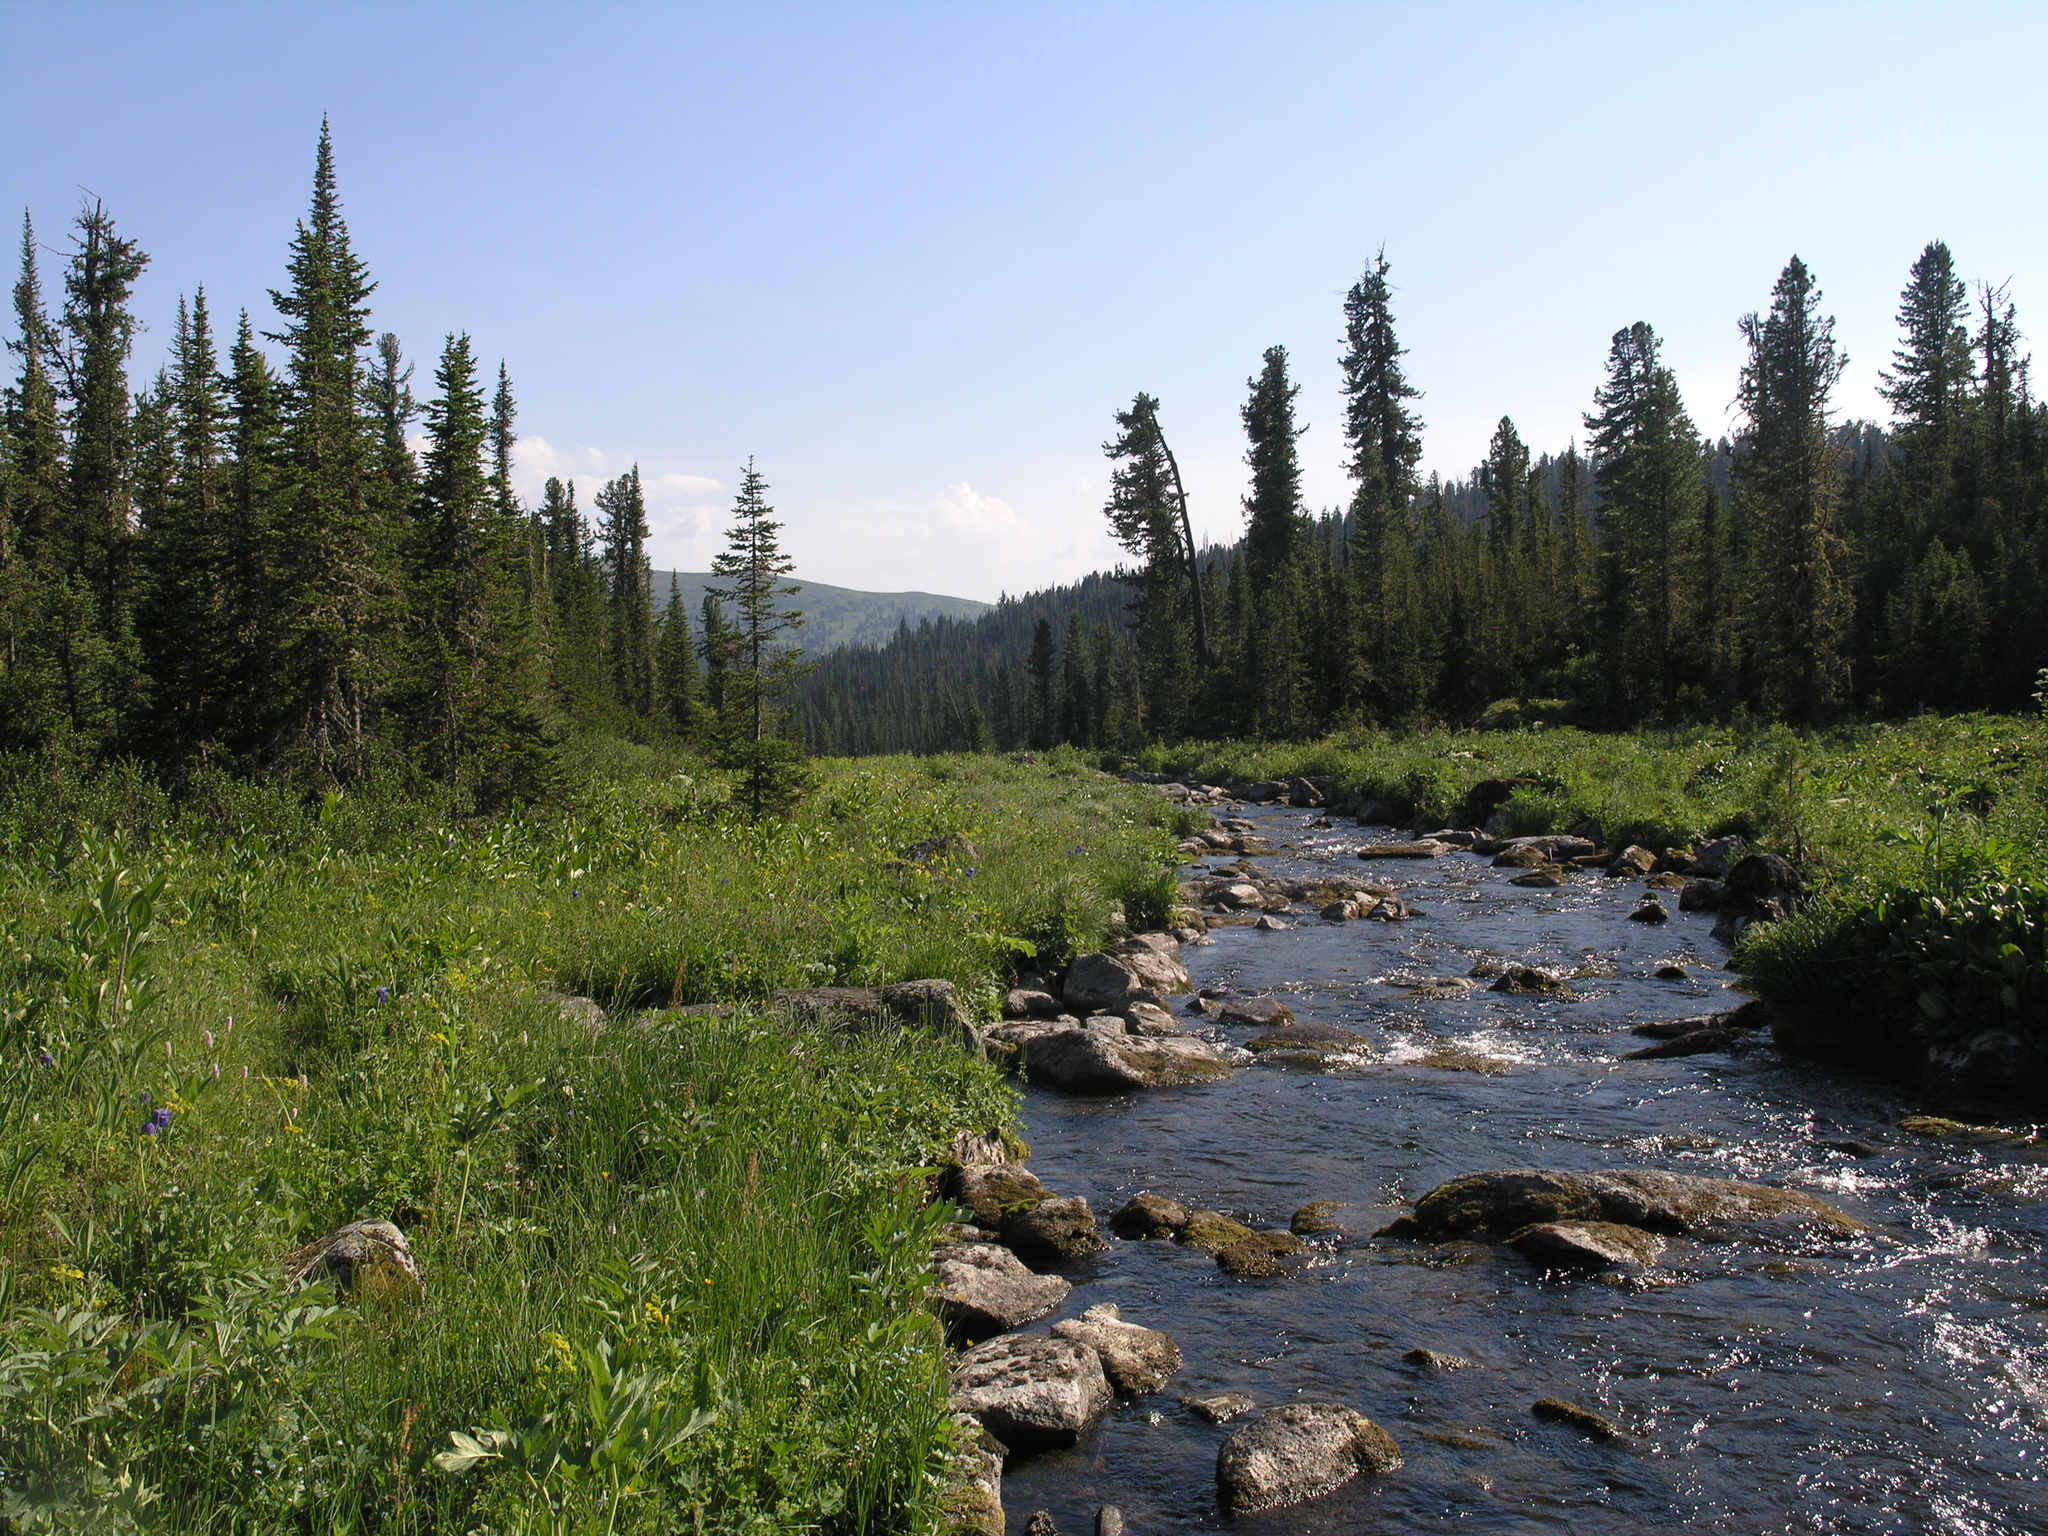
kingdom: Plantae
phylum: Tracheophyta
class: Pinopsida
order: Pinales
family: Pinaceae
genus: Abies
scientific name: Abies sibirica
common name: Siberian fir
